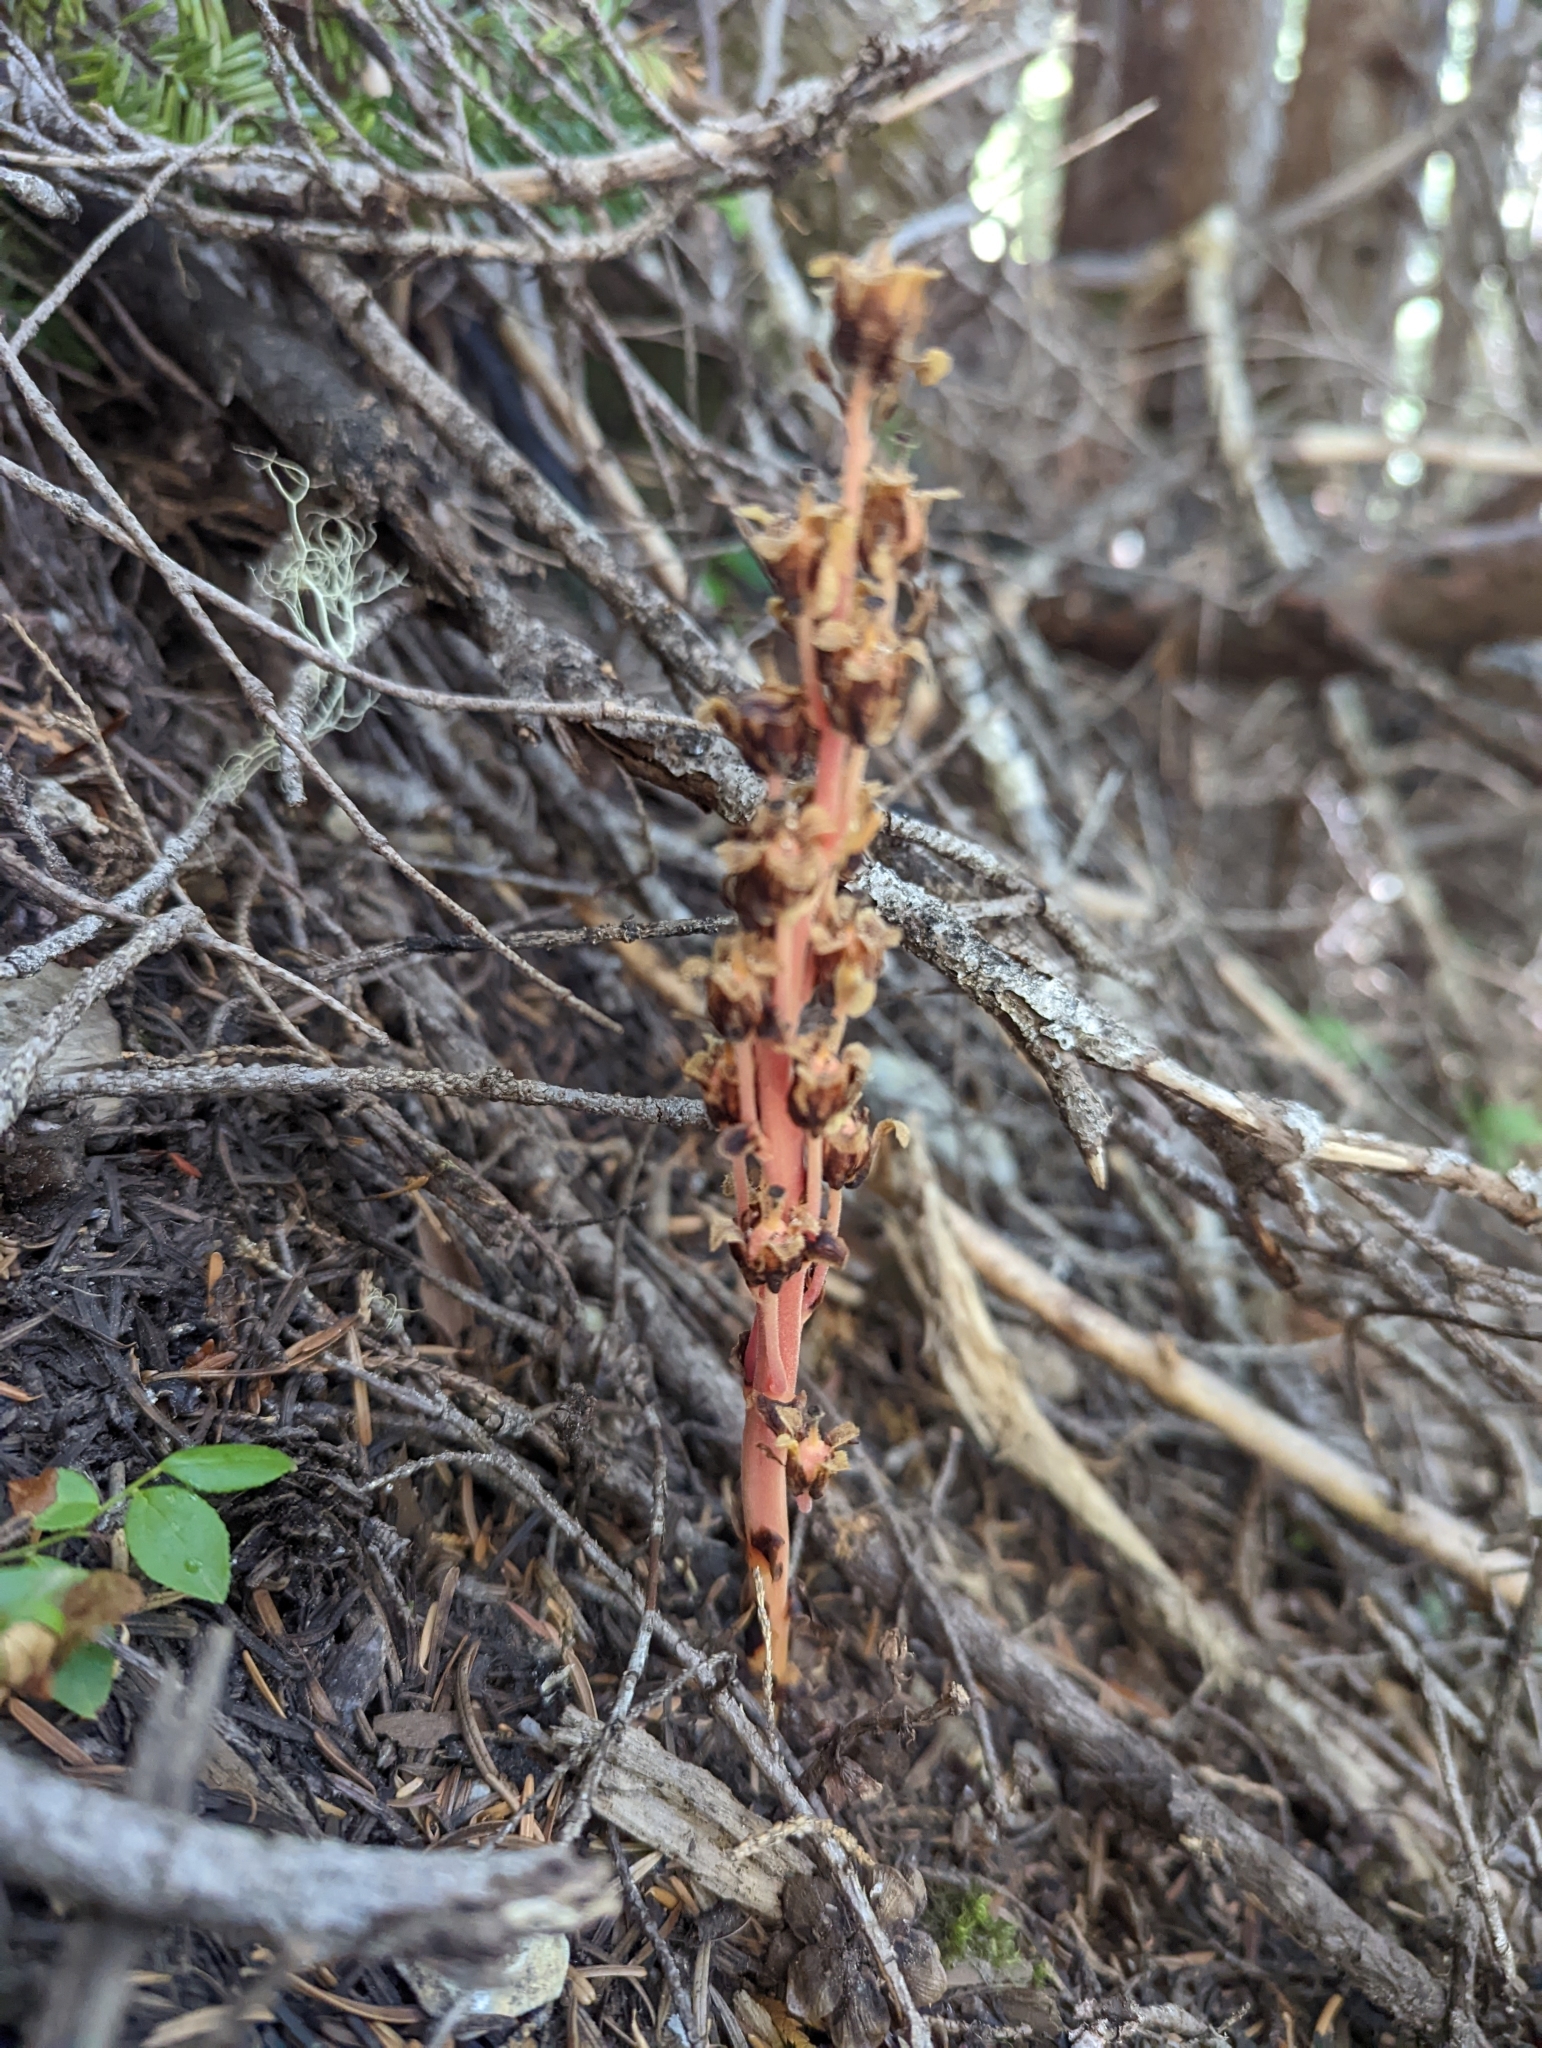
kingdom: Plantae
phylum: Tracheophyta
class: Magnoliopsida
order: Ericales
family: Ericaceae
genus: Hypopitys
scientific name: Hypopitys monotropa
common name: Yellow bird's-nest
